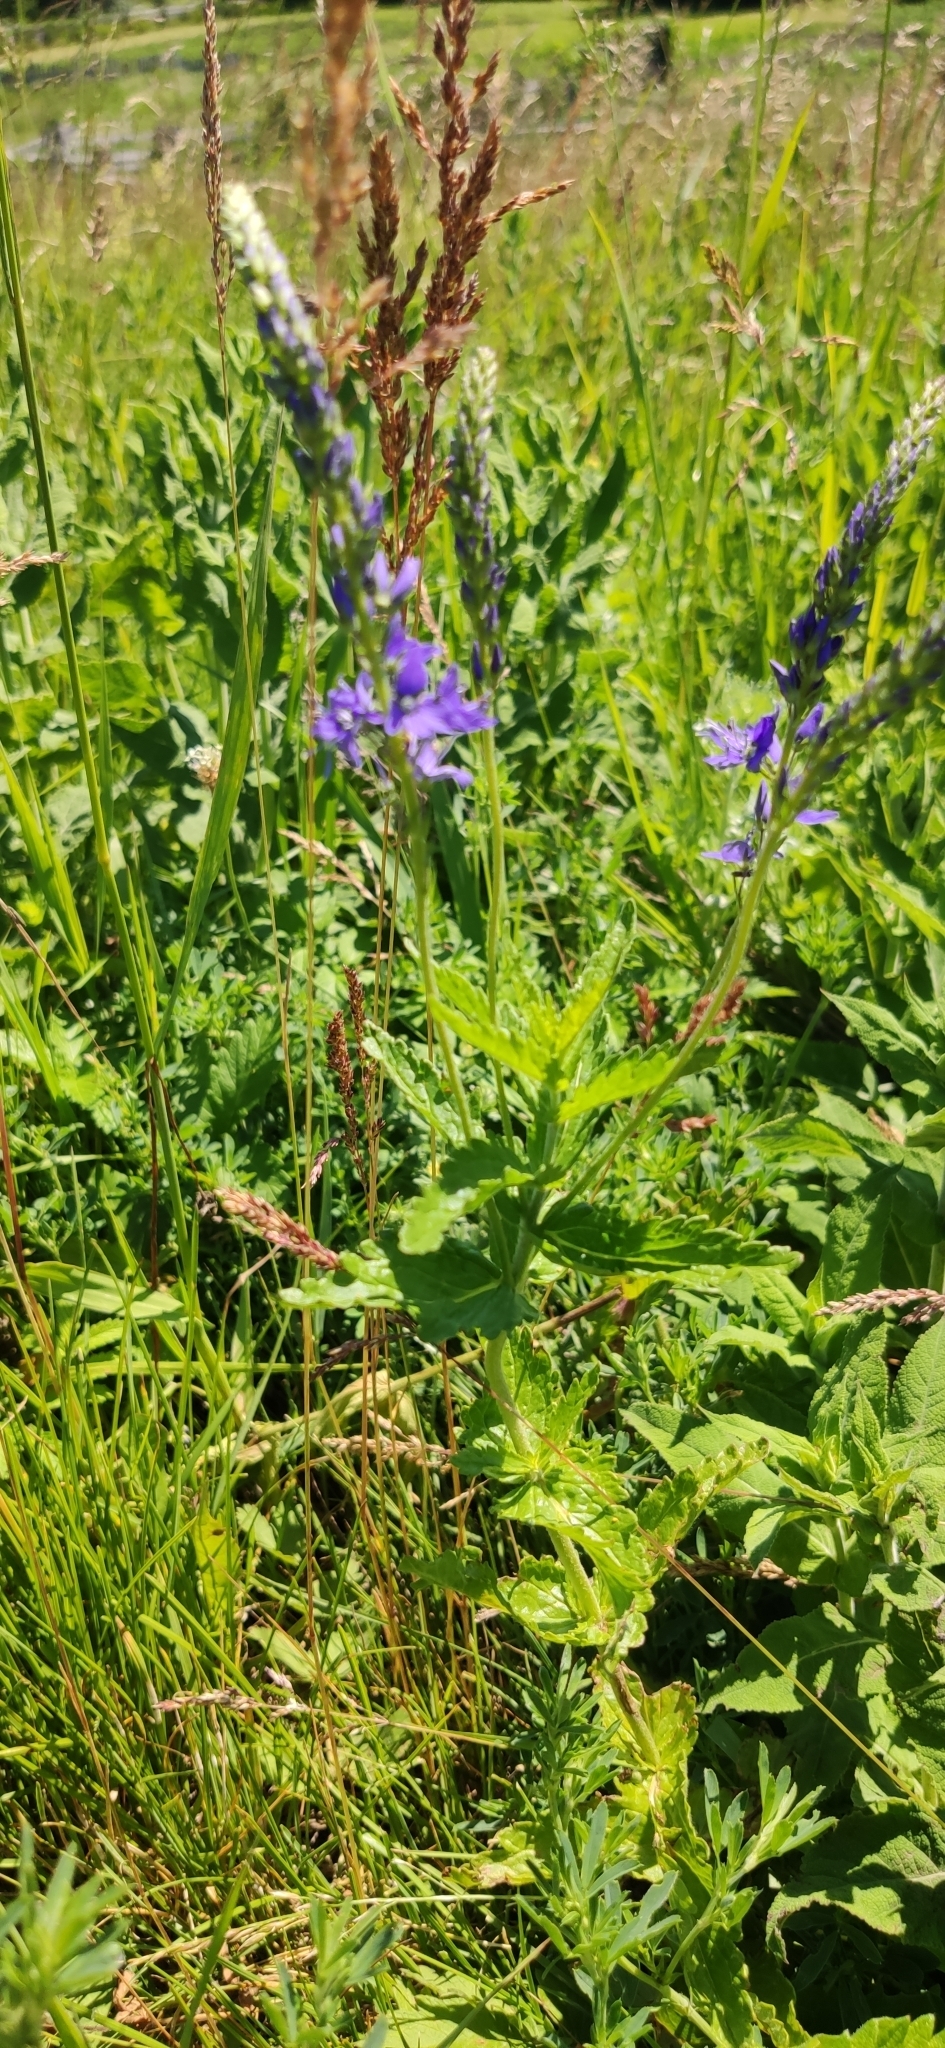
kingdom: Plantae
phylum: Tracheophyta
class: Magnoliopsida
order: Lamiales
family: Plantaginaceae
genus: Veronica
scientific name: Veronica teucrium
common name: Large speedwell
